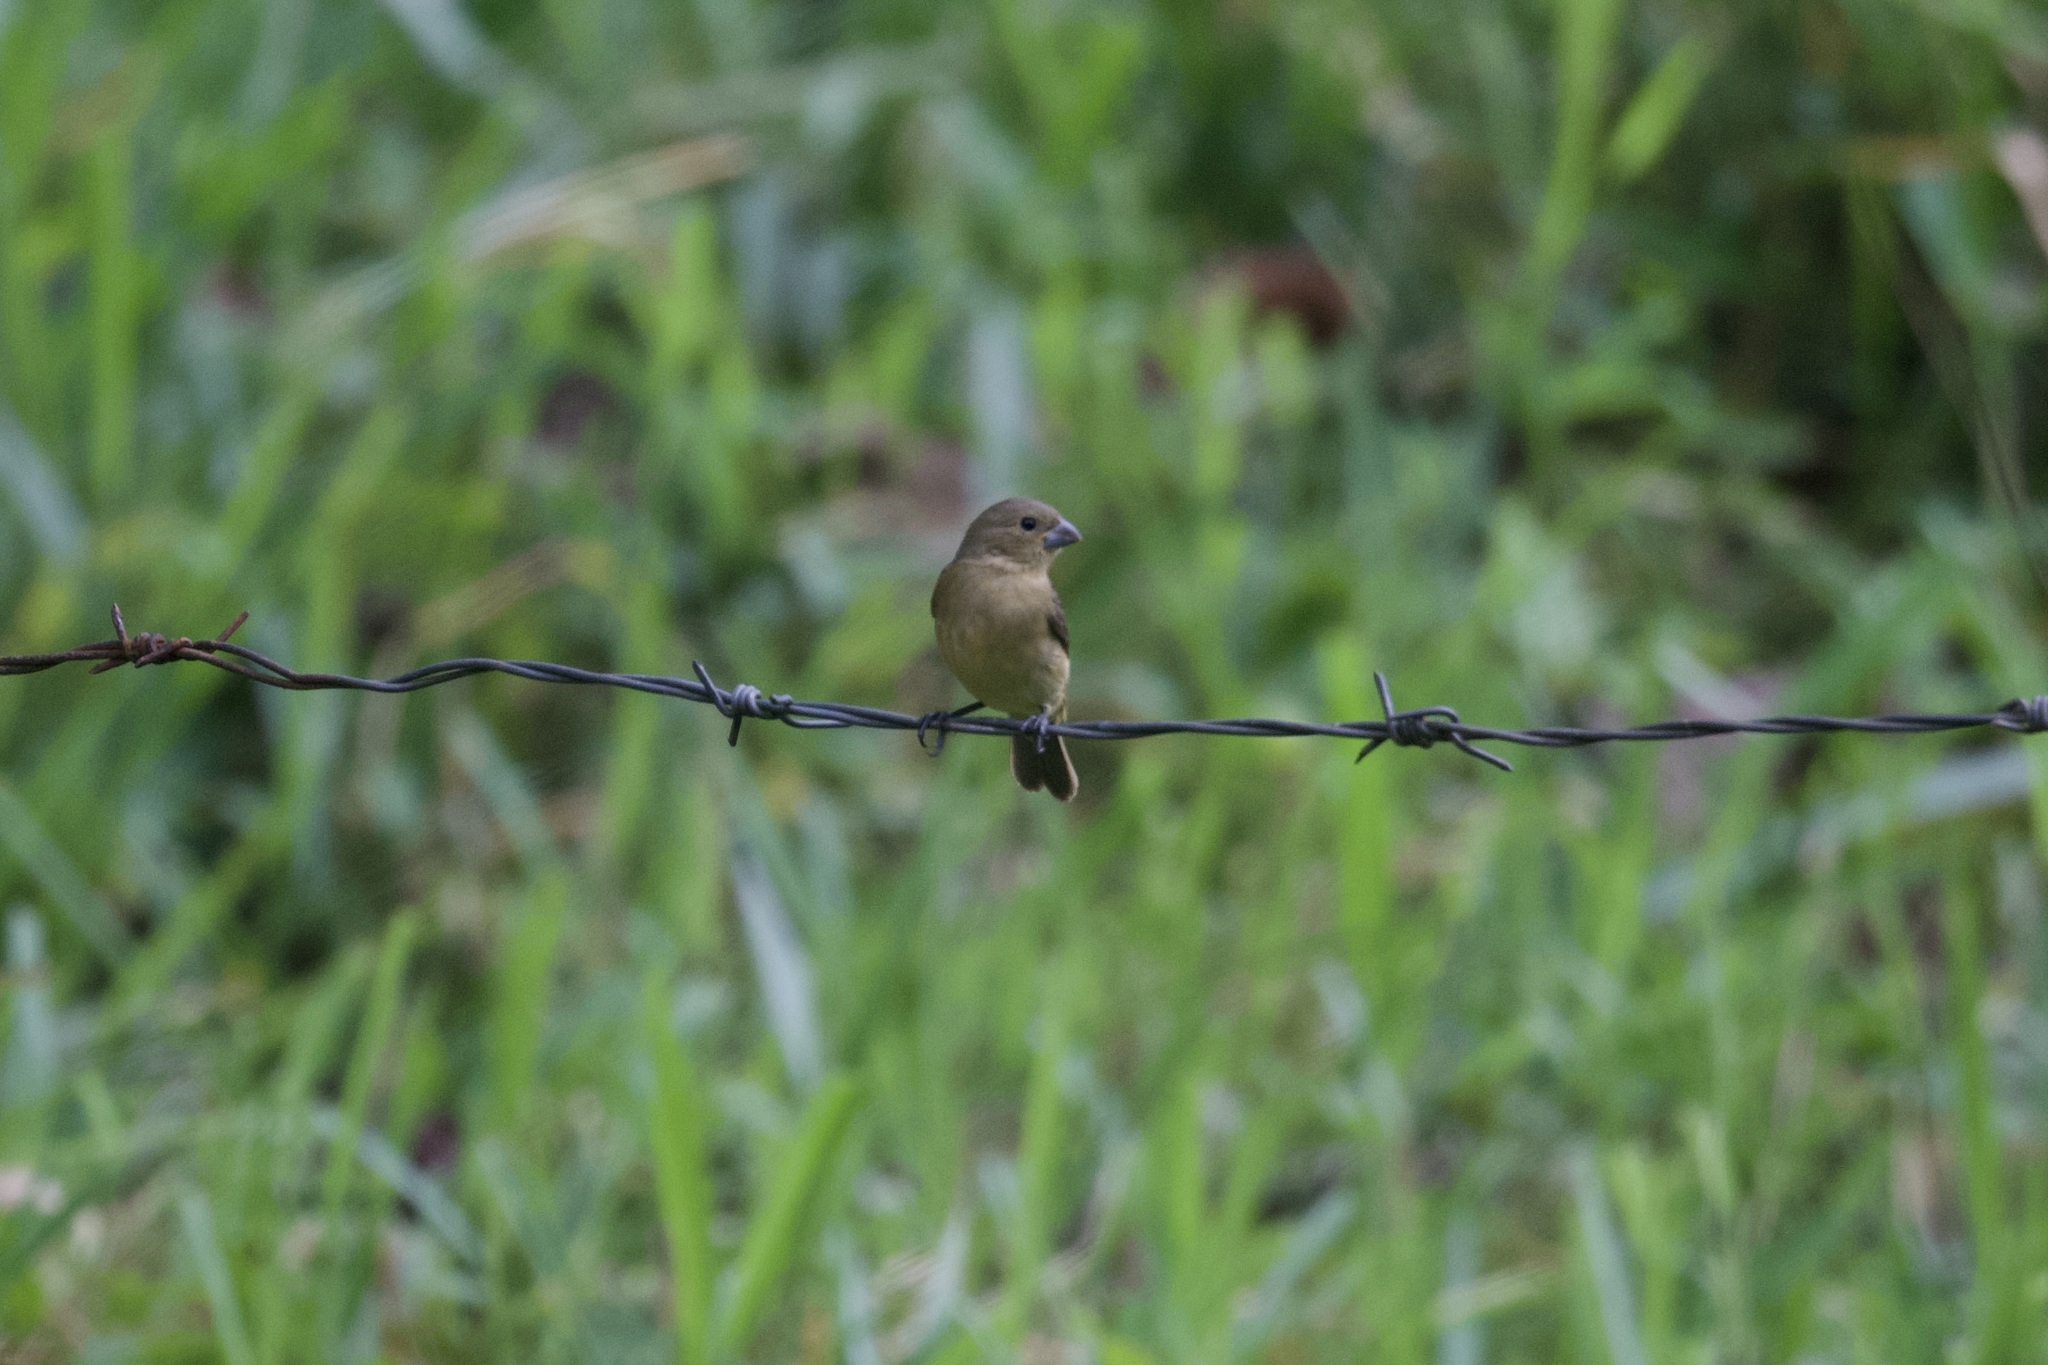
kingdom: Animalia
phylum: Chordata
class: Aves
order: Passeriformes
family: Thraupidae
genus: Sporophila
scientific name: Sporophila nigricollis
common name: Yellow-bellied seedeater
